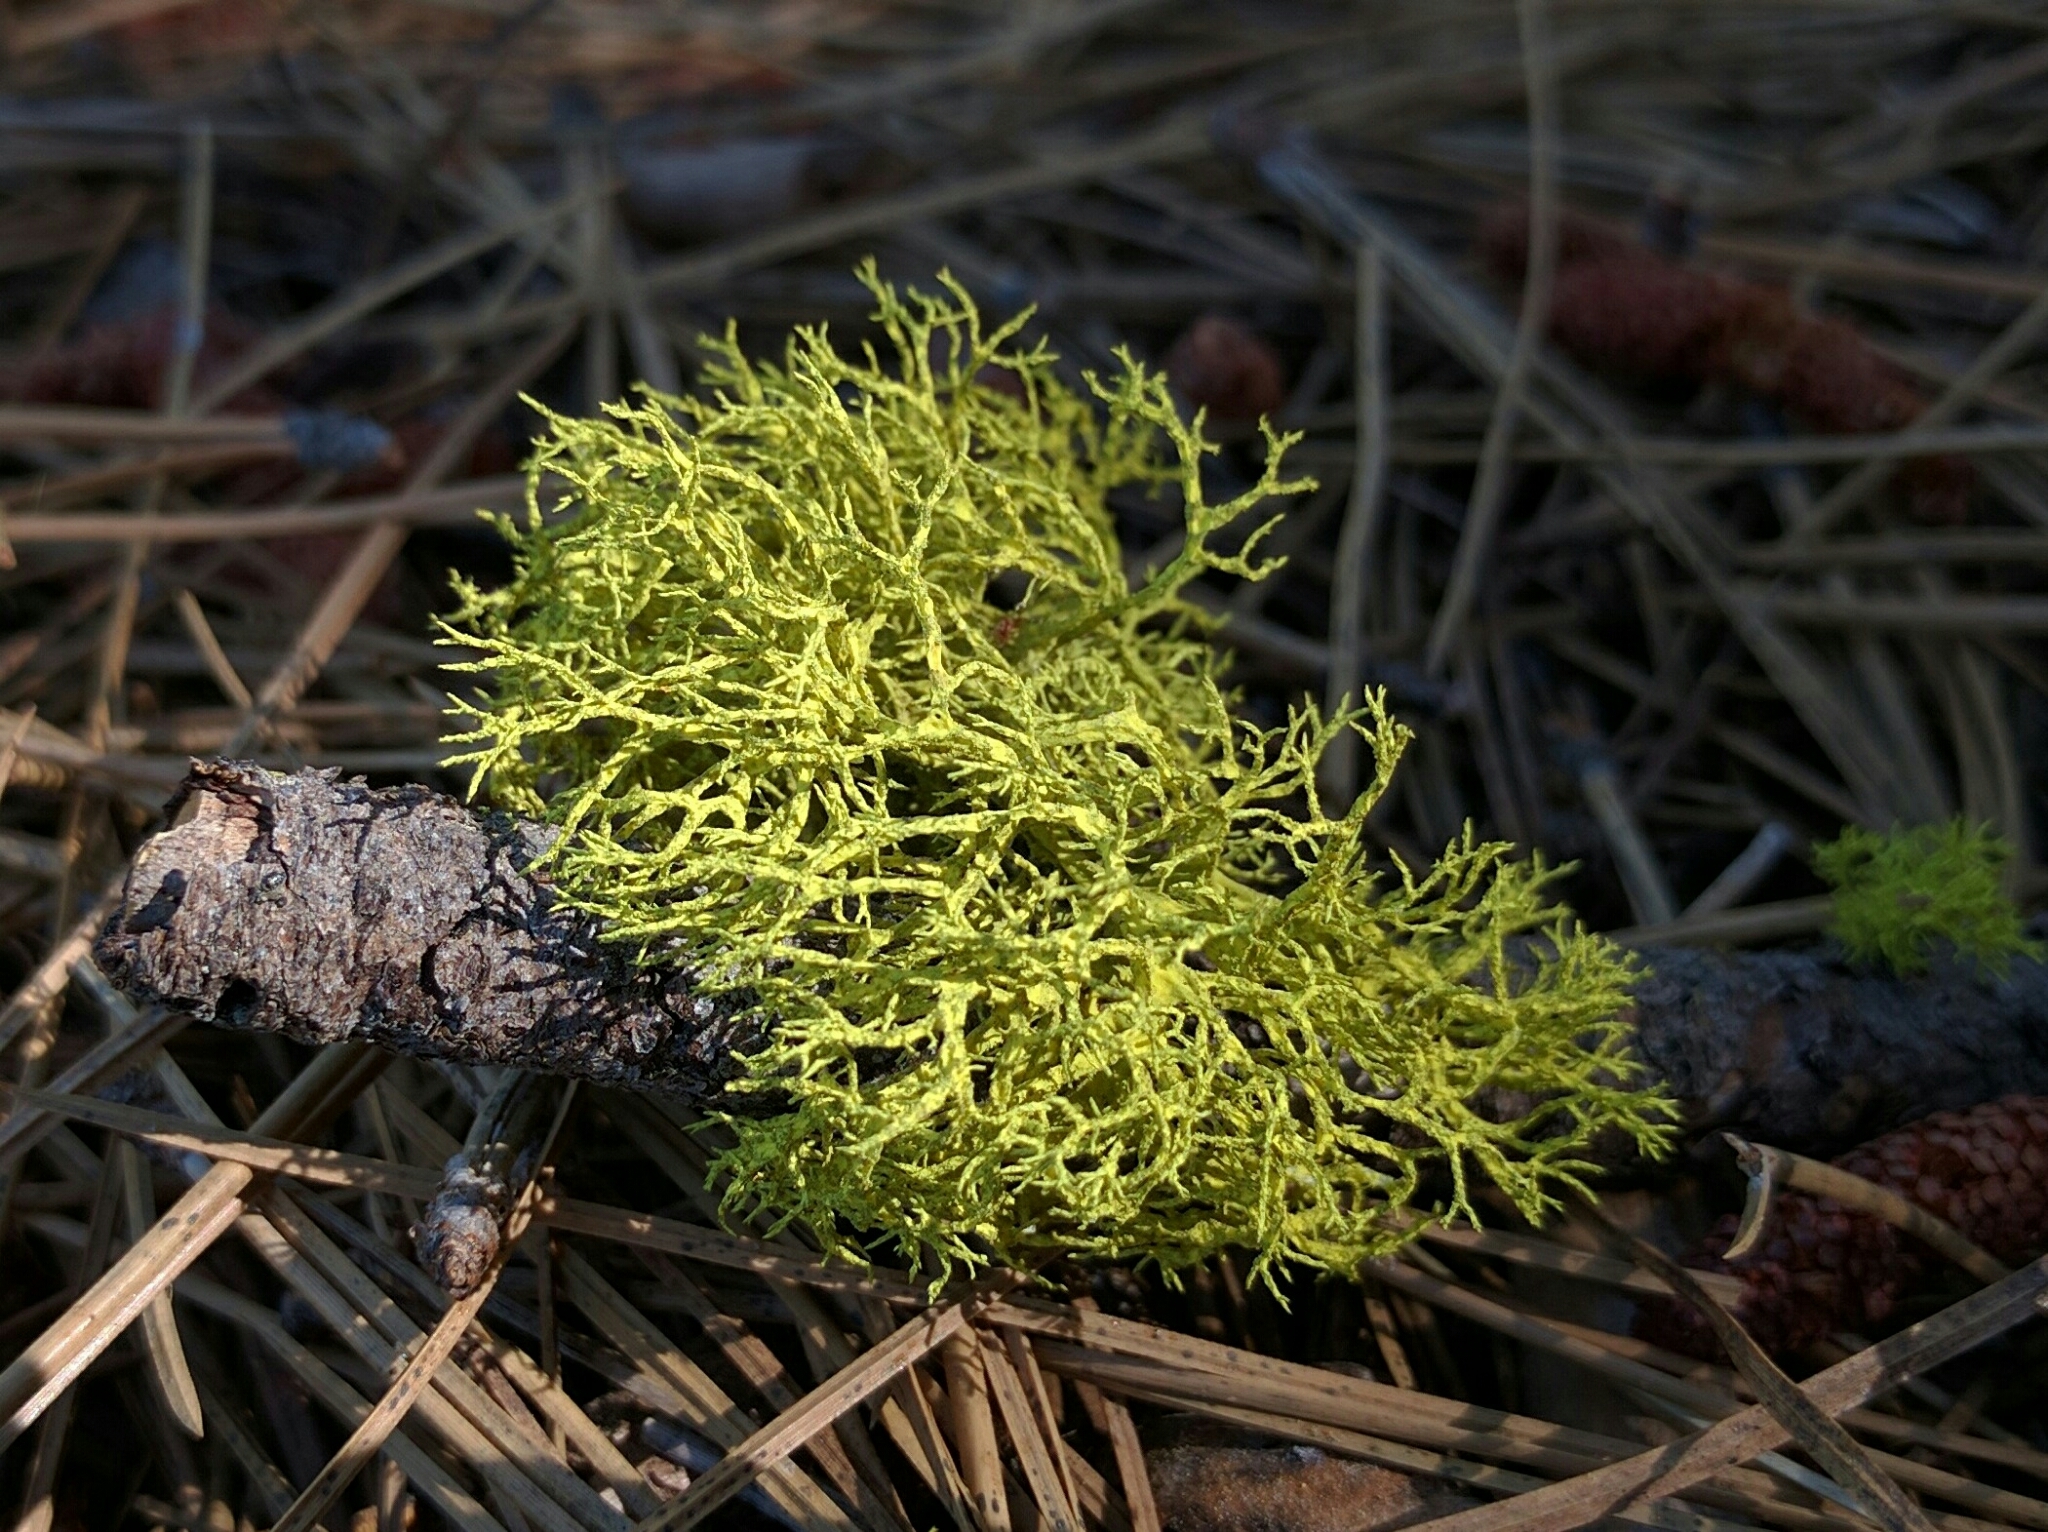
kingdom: Fungi
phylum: Ascomycota
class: Lecanoromycetes
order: Lecanorales
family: Parmeliaceae
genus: Letharia
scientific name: Letharia vulpina
